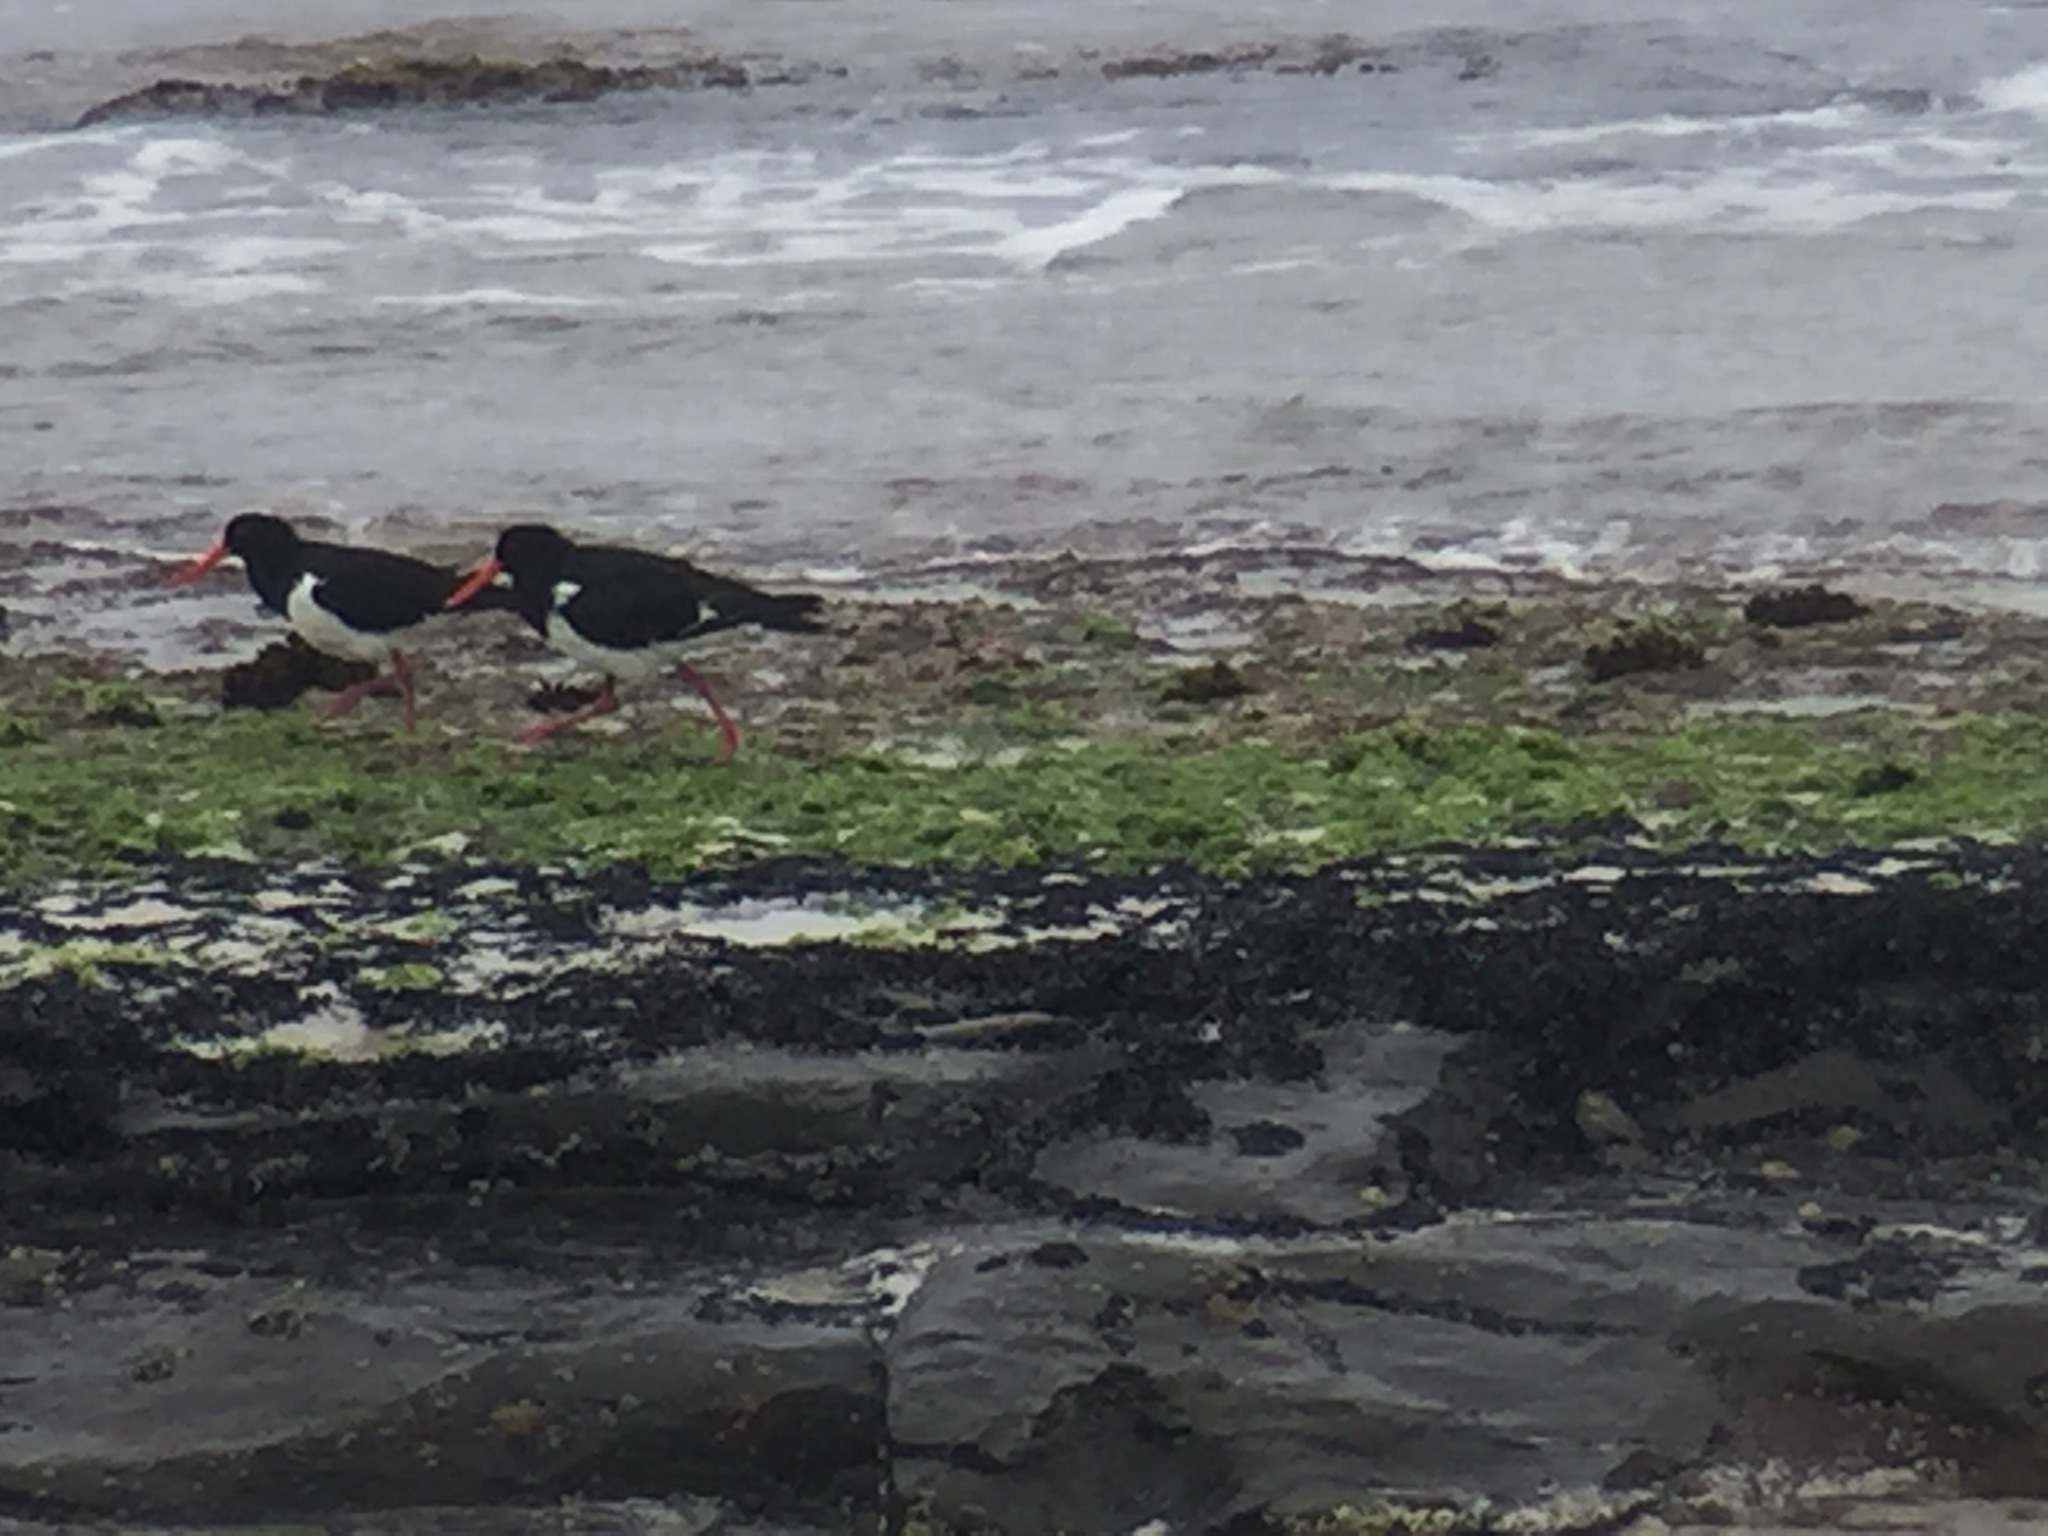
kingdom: Animalia
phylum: Chordata
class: Aves
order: Charadriiformes
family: Haematopodidae
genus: Haematopus
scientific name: Haematopus longirostris
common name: Pied oystercatcher
